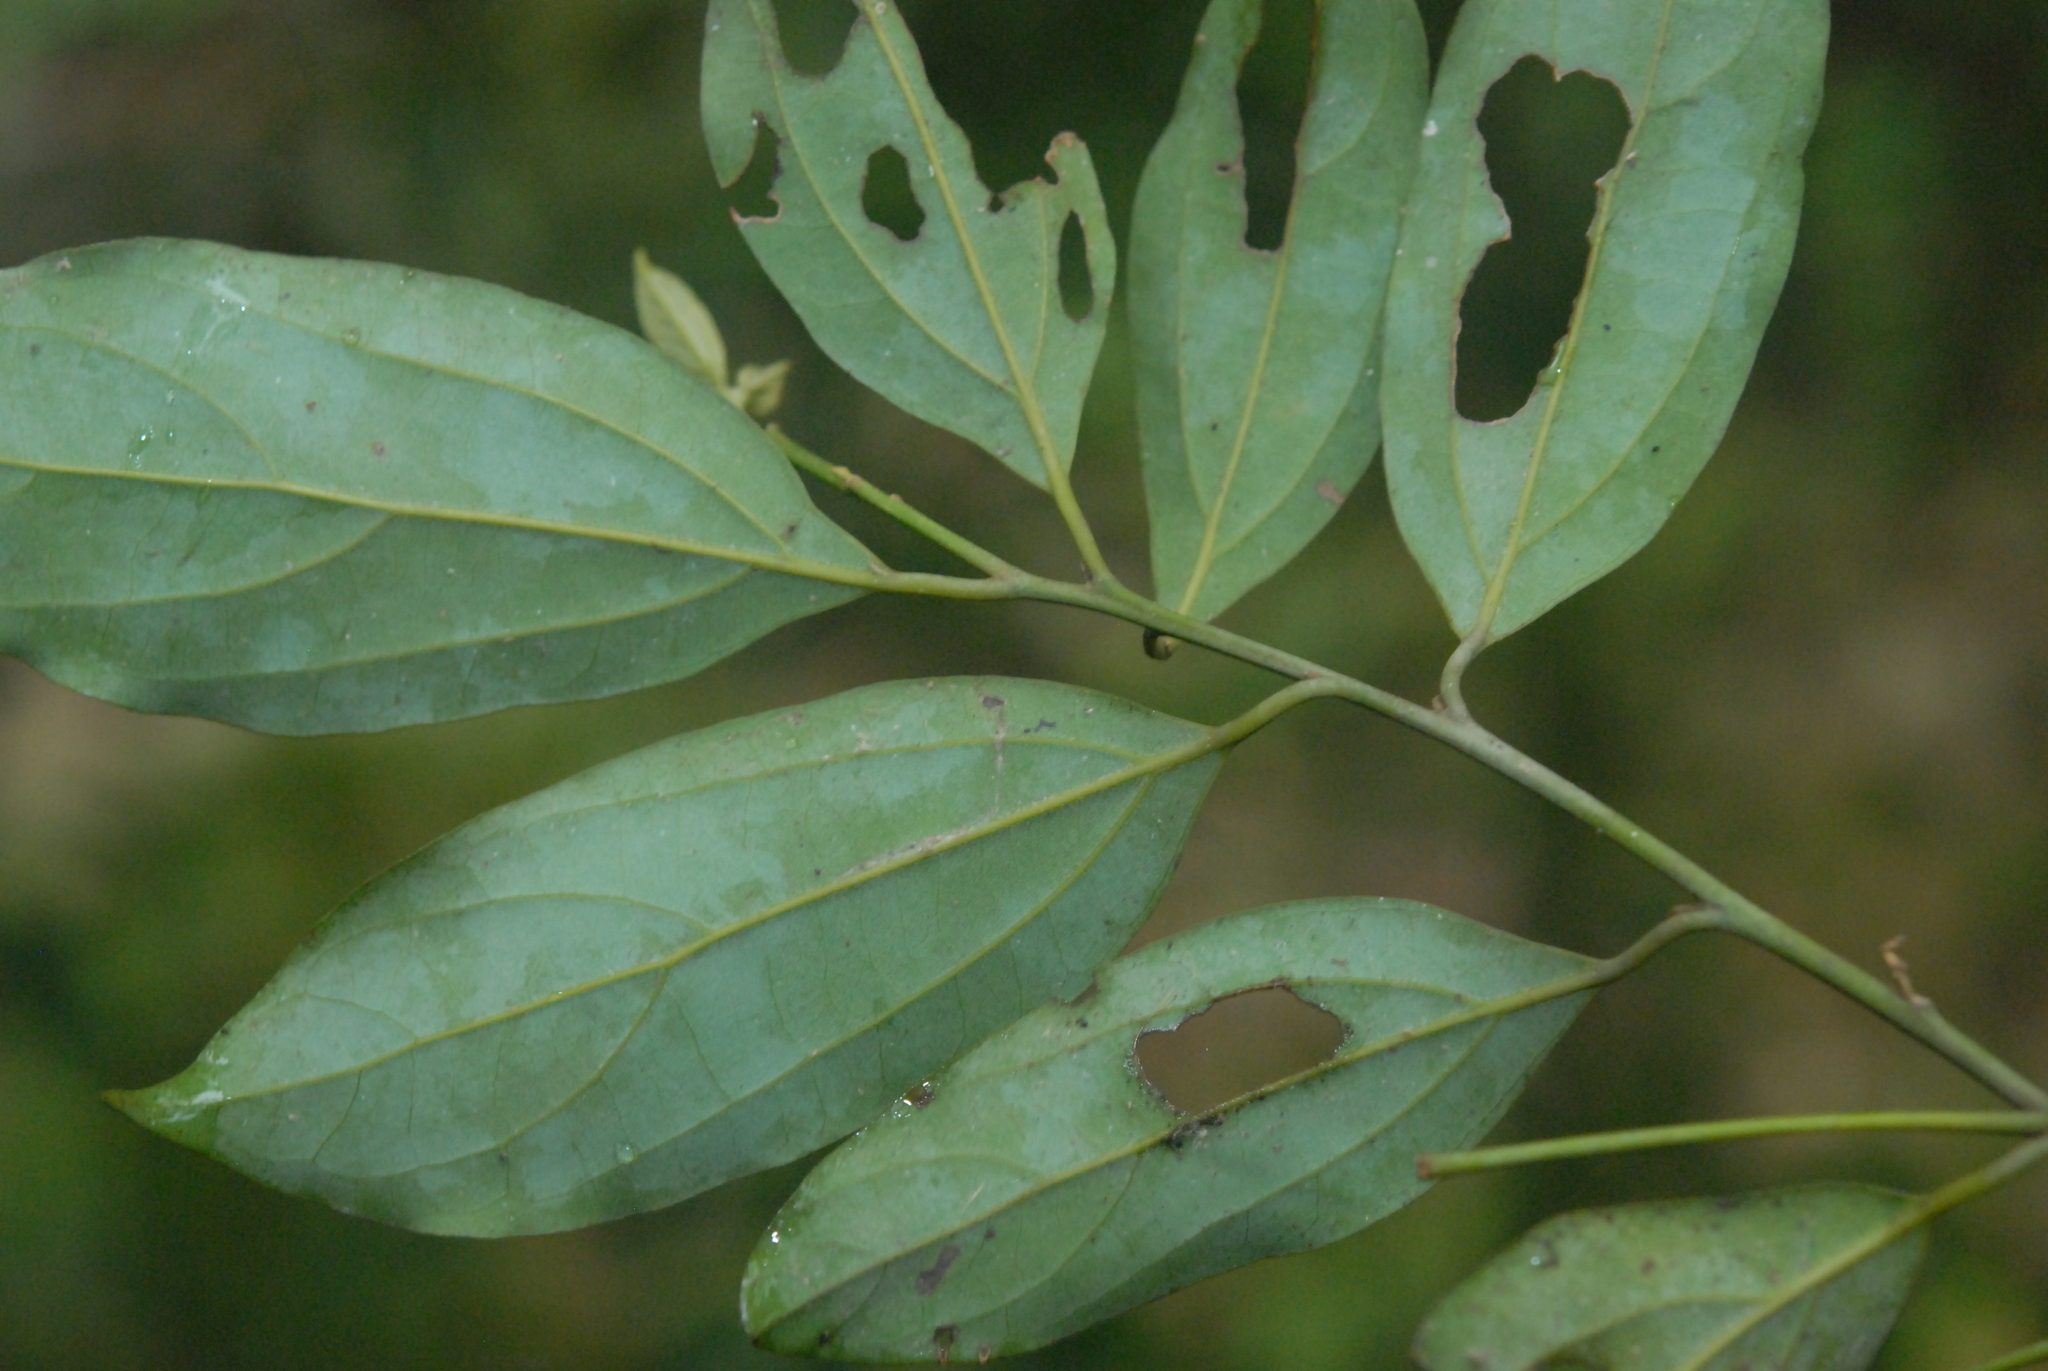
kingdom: Plantae
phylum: Tracheophyta
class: Magnoliopsida
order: Laurales
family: Lauraceae
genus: Cryptocarya
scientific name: Cryptocarya chinensis
